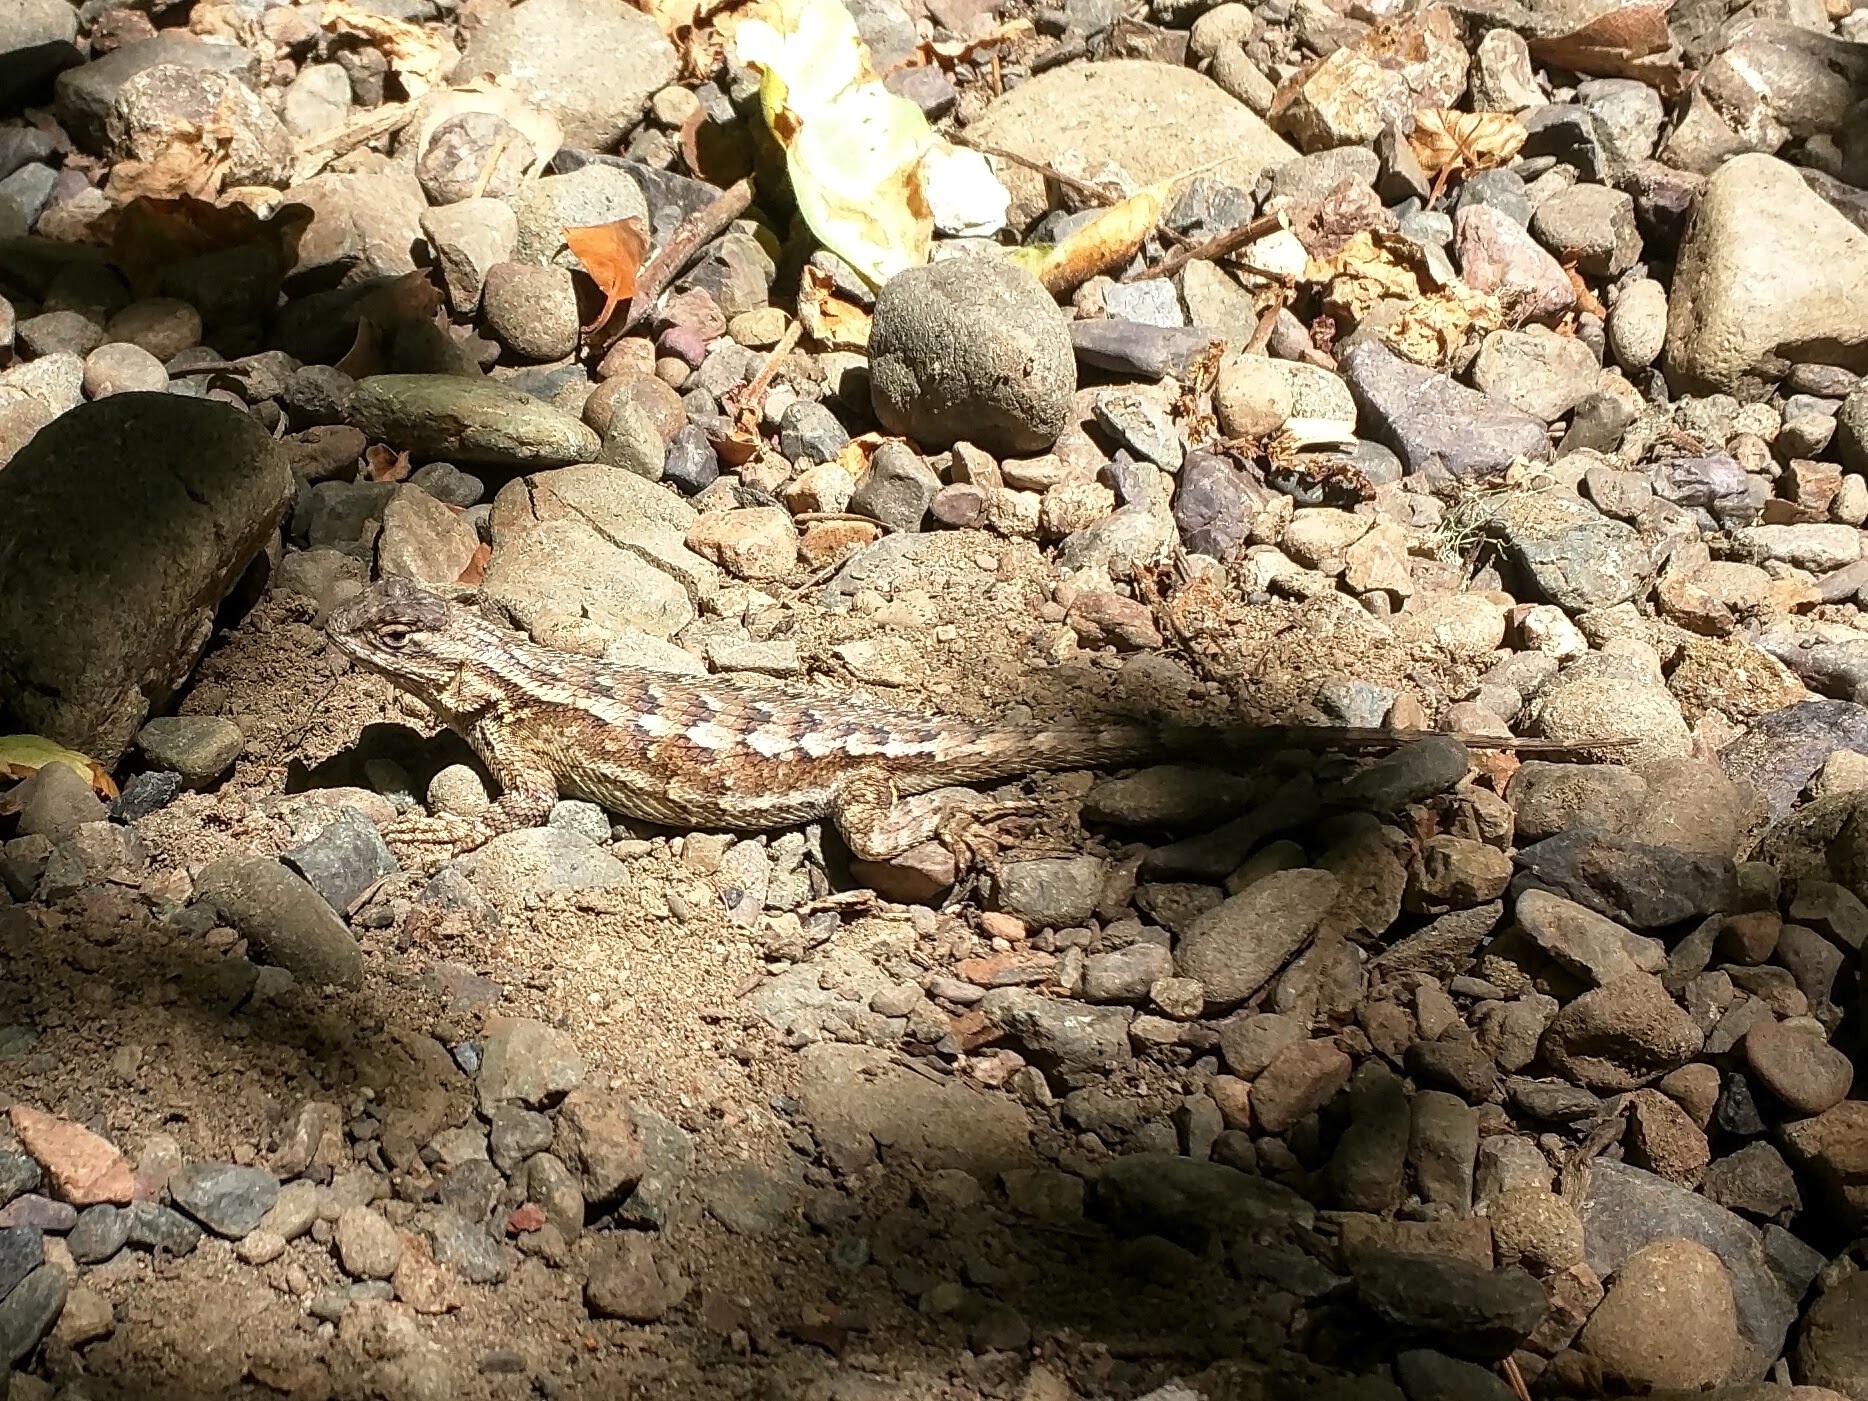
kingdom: Animalia
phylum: Chordata
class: Squamata
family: Phrynosomatidae
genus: Sceloporus
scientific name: Sceloporus occidentalis
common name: Western fence lizard
